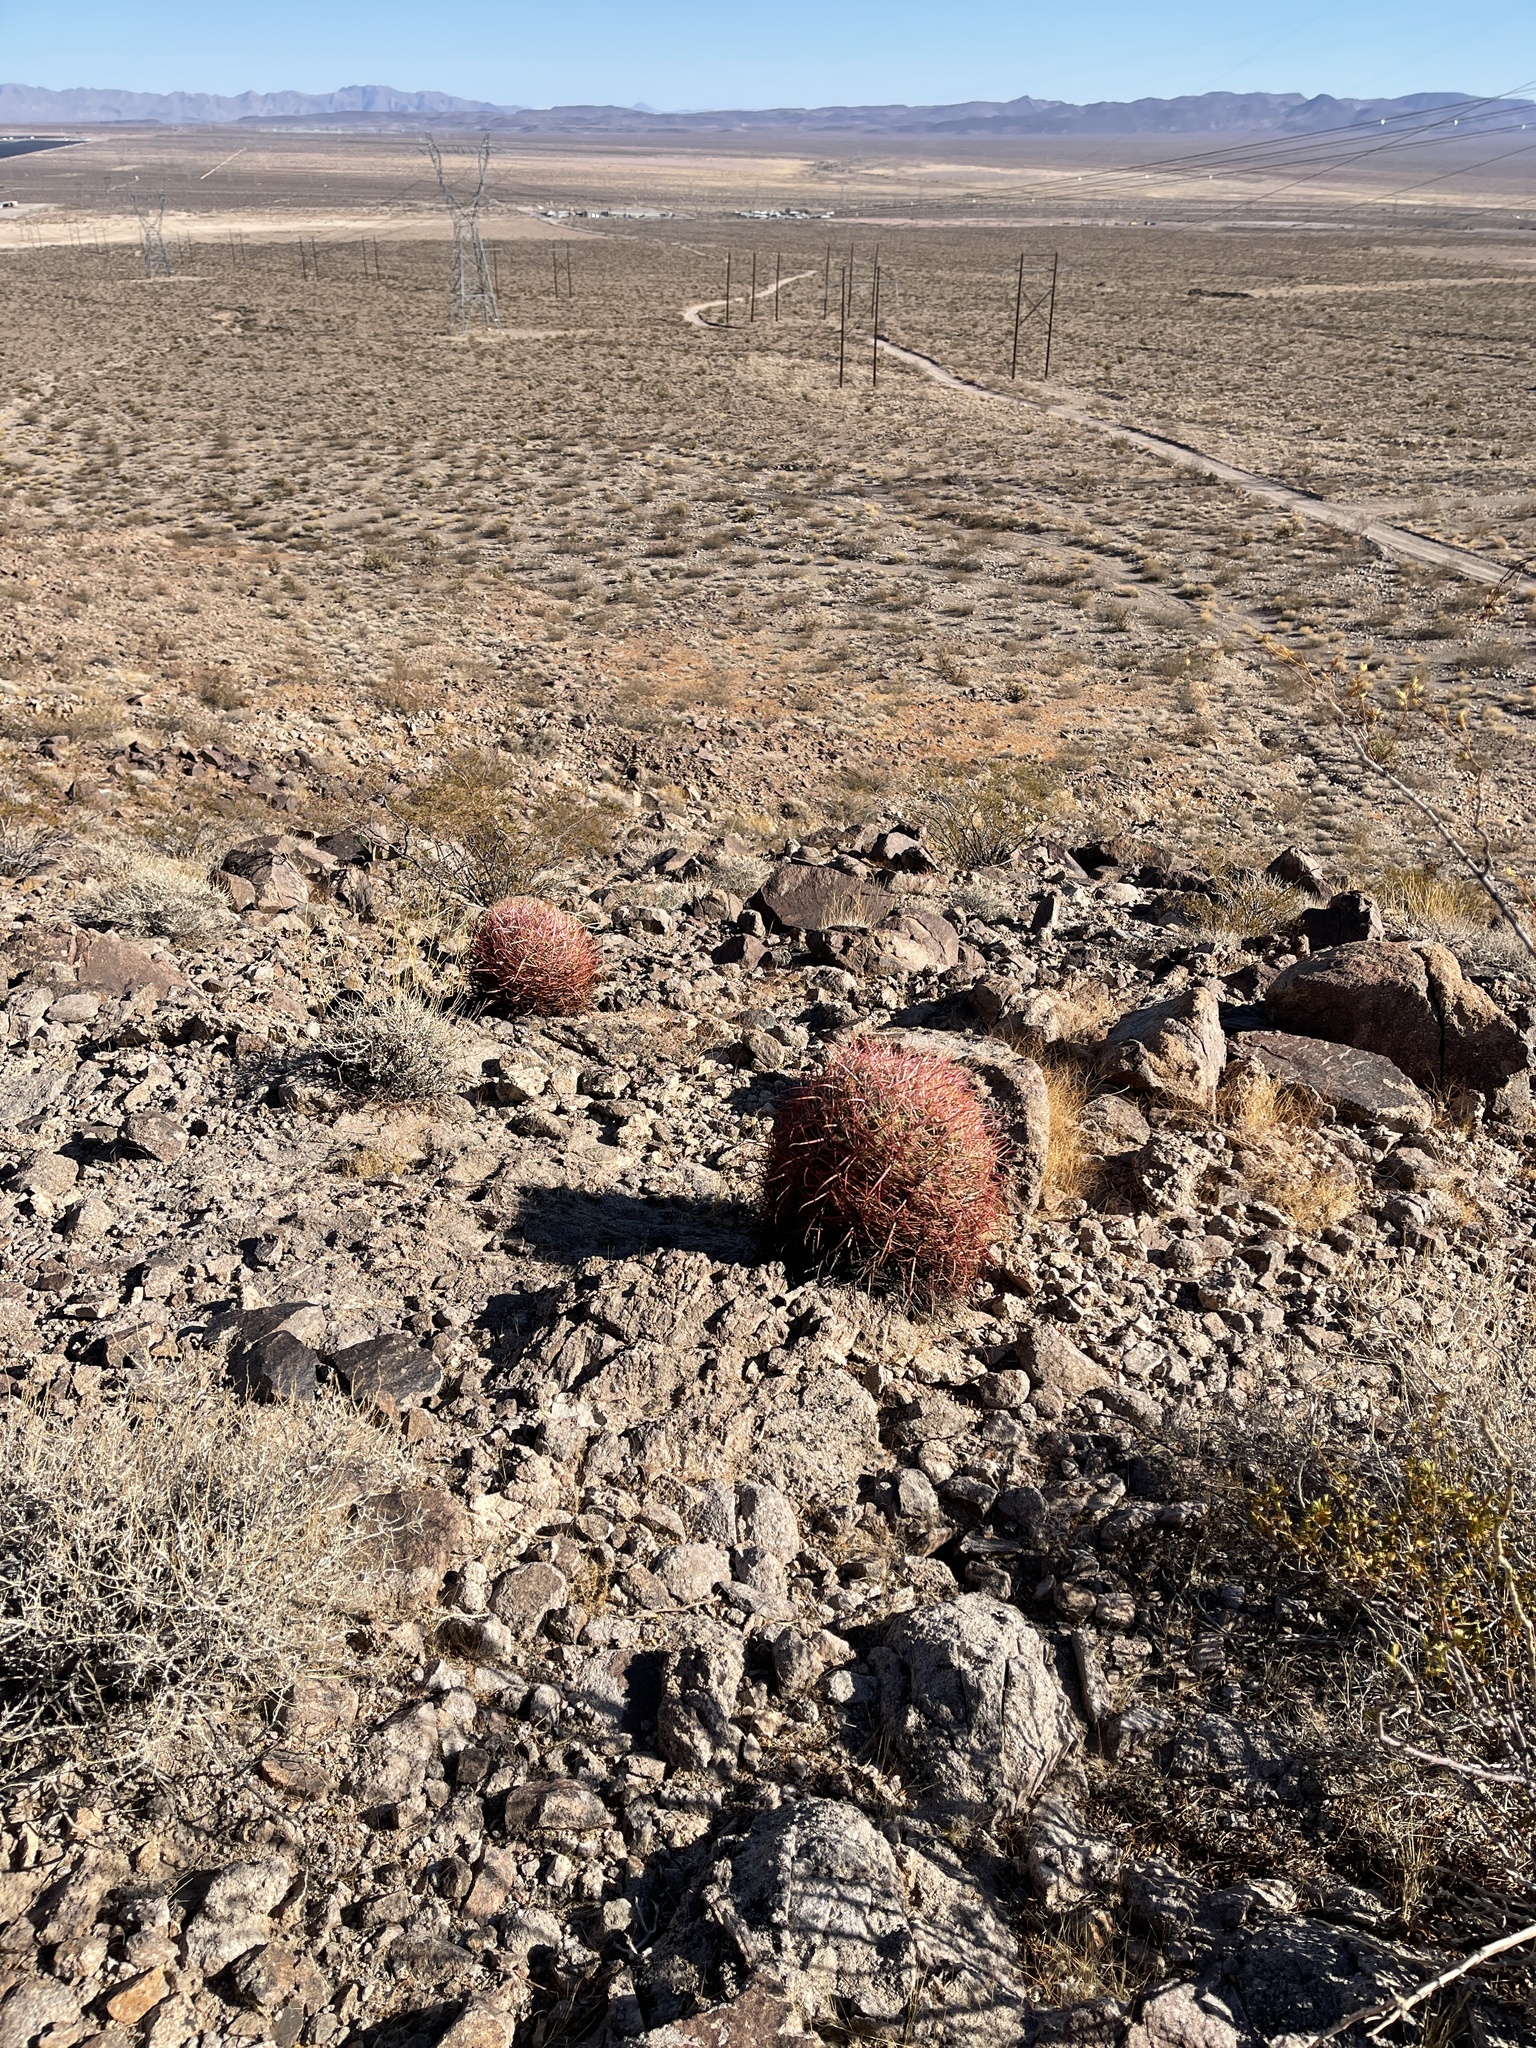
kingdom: Plantae
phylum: Tracheophyta
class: Magnoliopsida
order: Caryophyllales
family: Cactaceae
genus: Ferocactus
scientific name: Ferocactus cylindraceus
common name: California barrel cactus
